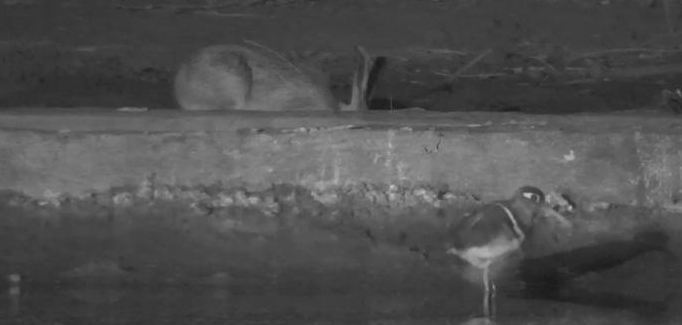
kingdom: Animalia
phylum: Chordata
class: Aves
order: Charadriiformes
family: Rostratulidae
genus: Rostratula
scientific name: Rostratula benghalensis
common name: Greater painted-snipe
